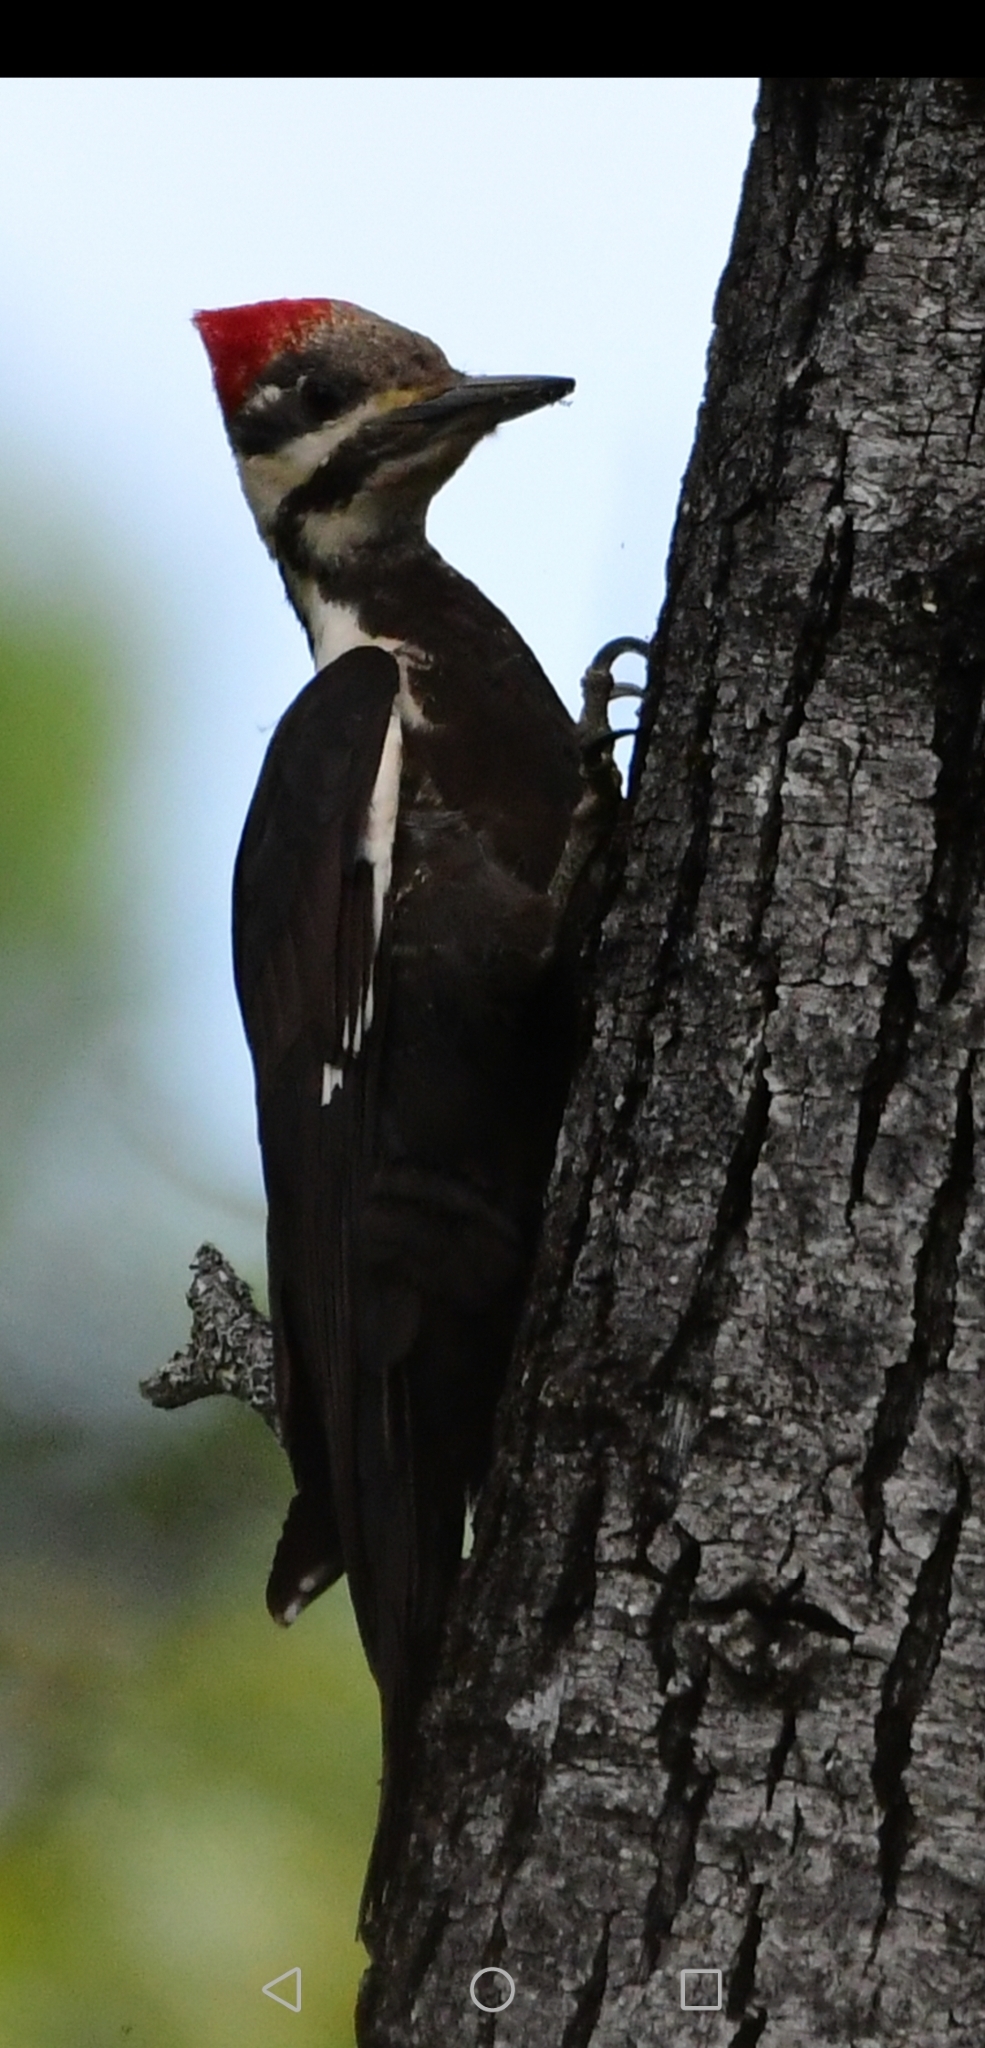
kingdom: Animalia
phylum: Chordata
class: Aves
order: Piciformes
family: Picidae
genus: Dryocopus
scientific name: Dryocopus pileatus
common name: Pileated woodpecker
